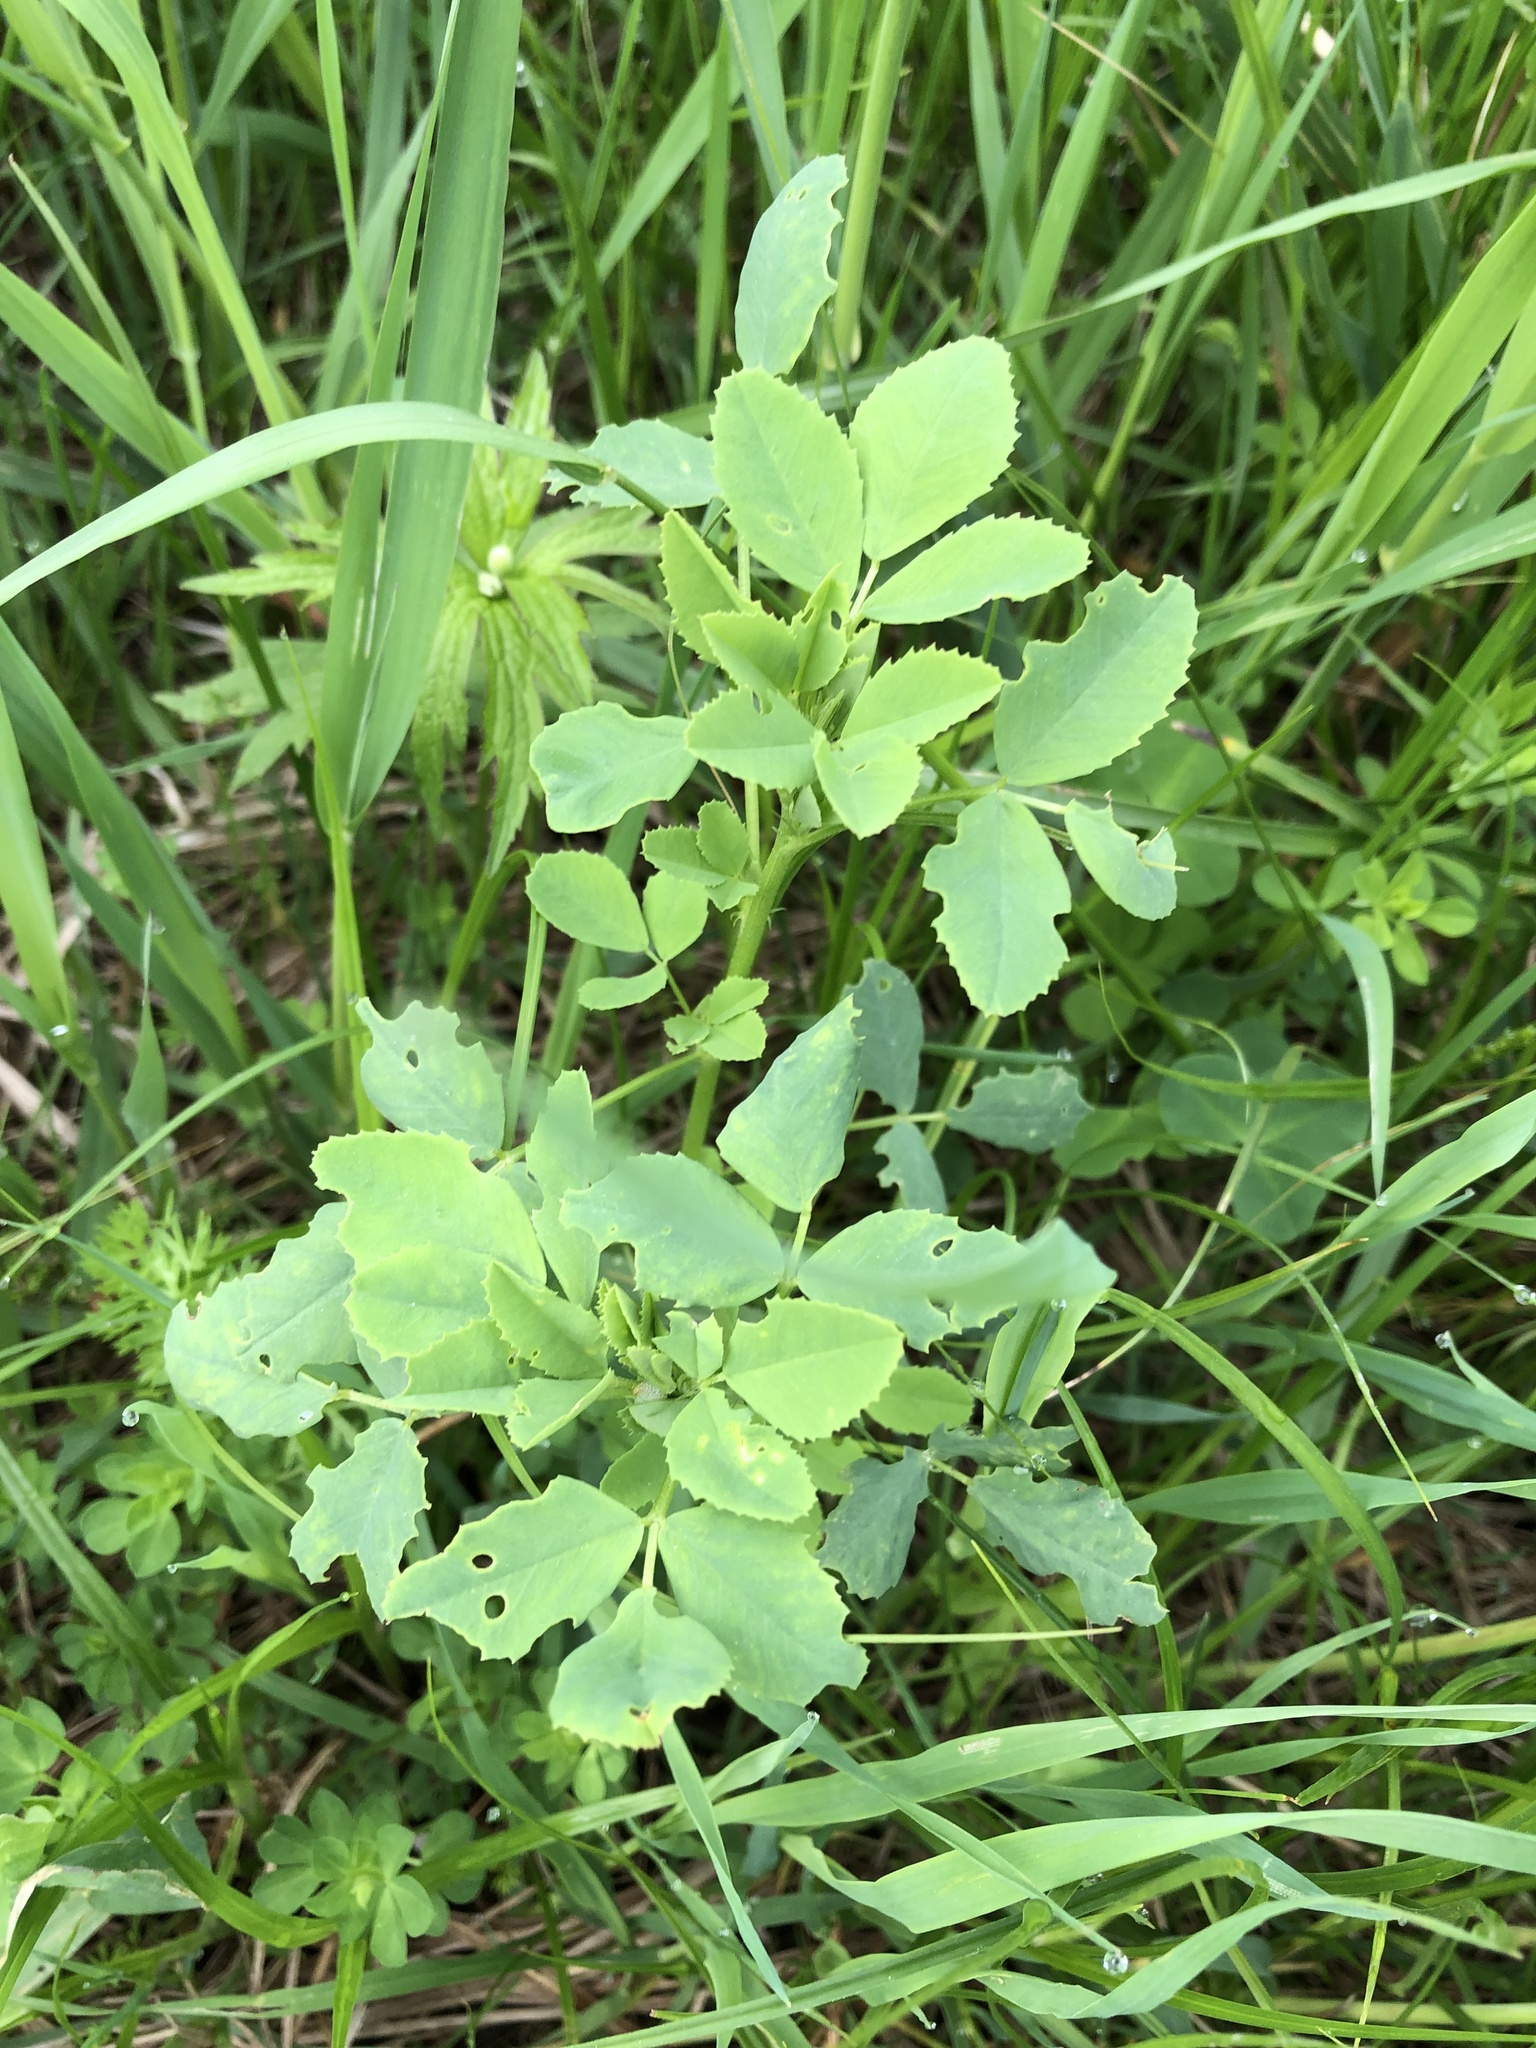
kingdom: Plantae
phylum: Tracheophyta
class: Magnoliopsida
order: Fabales
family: Fabaceae
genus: Melilotus
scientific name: Melilotus albus
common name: White melilot
